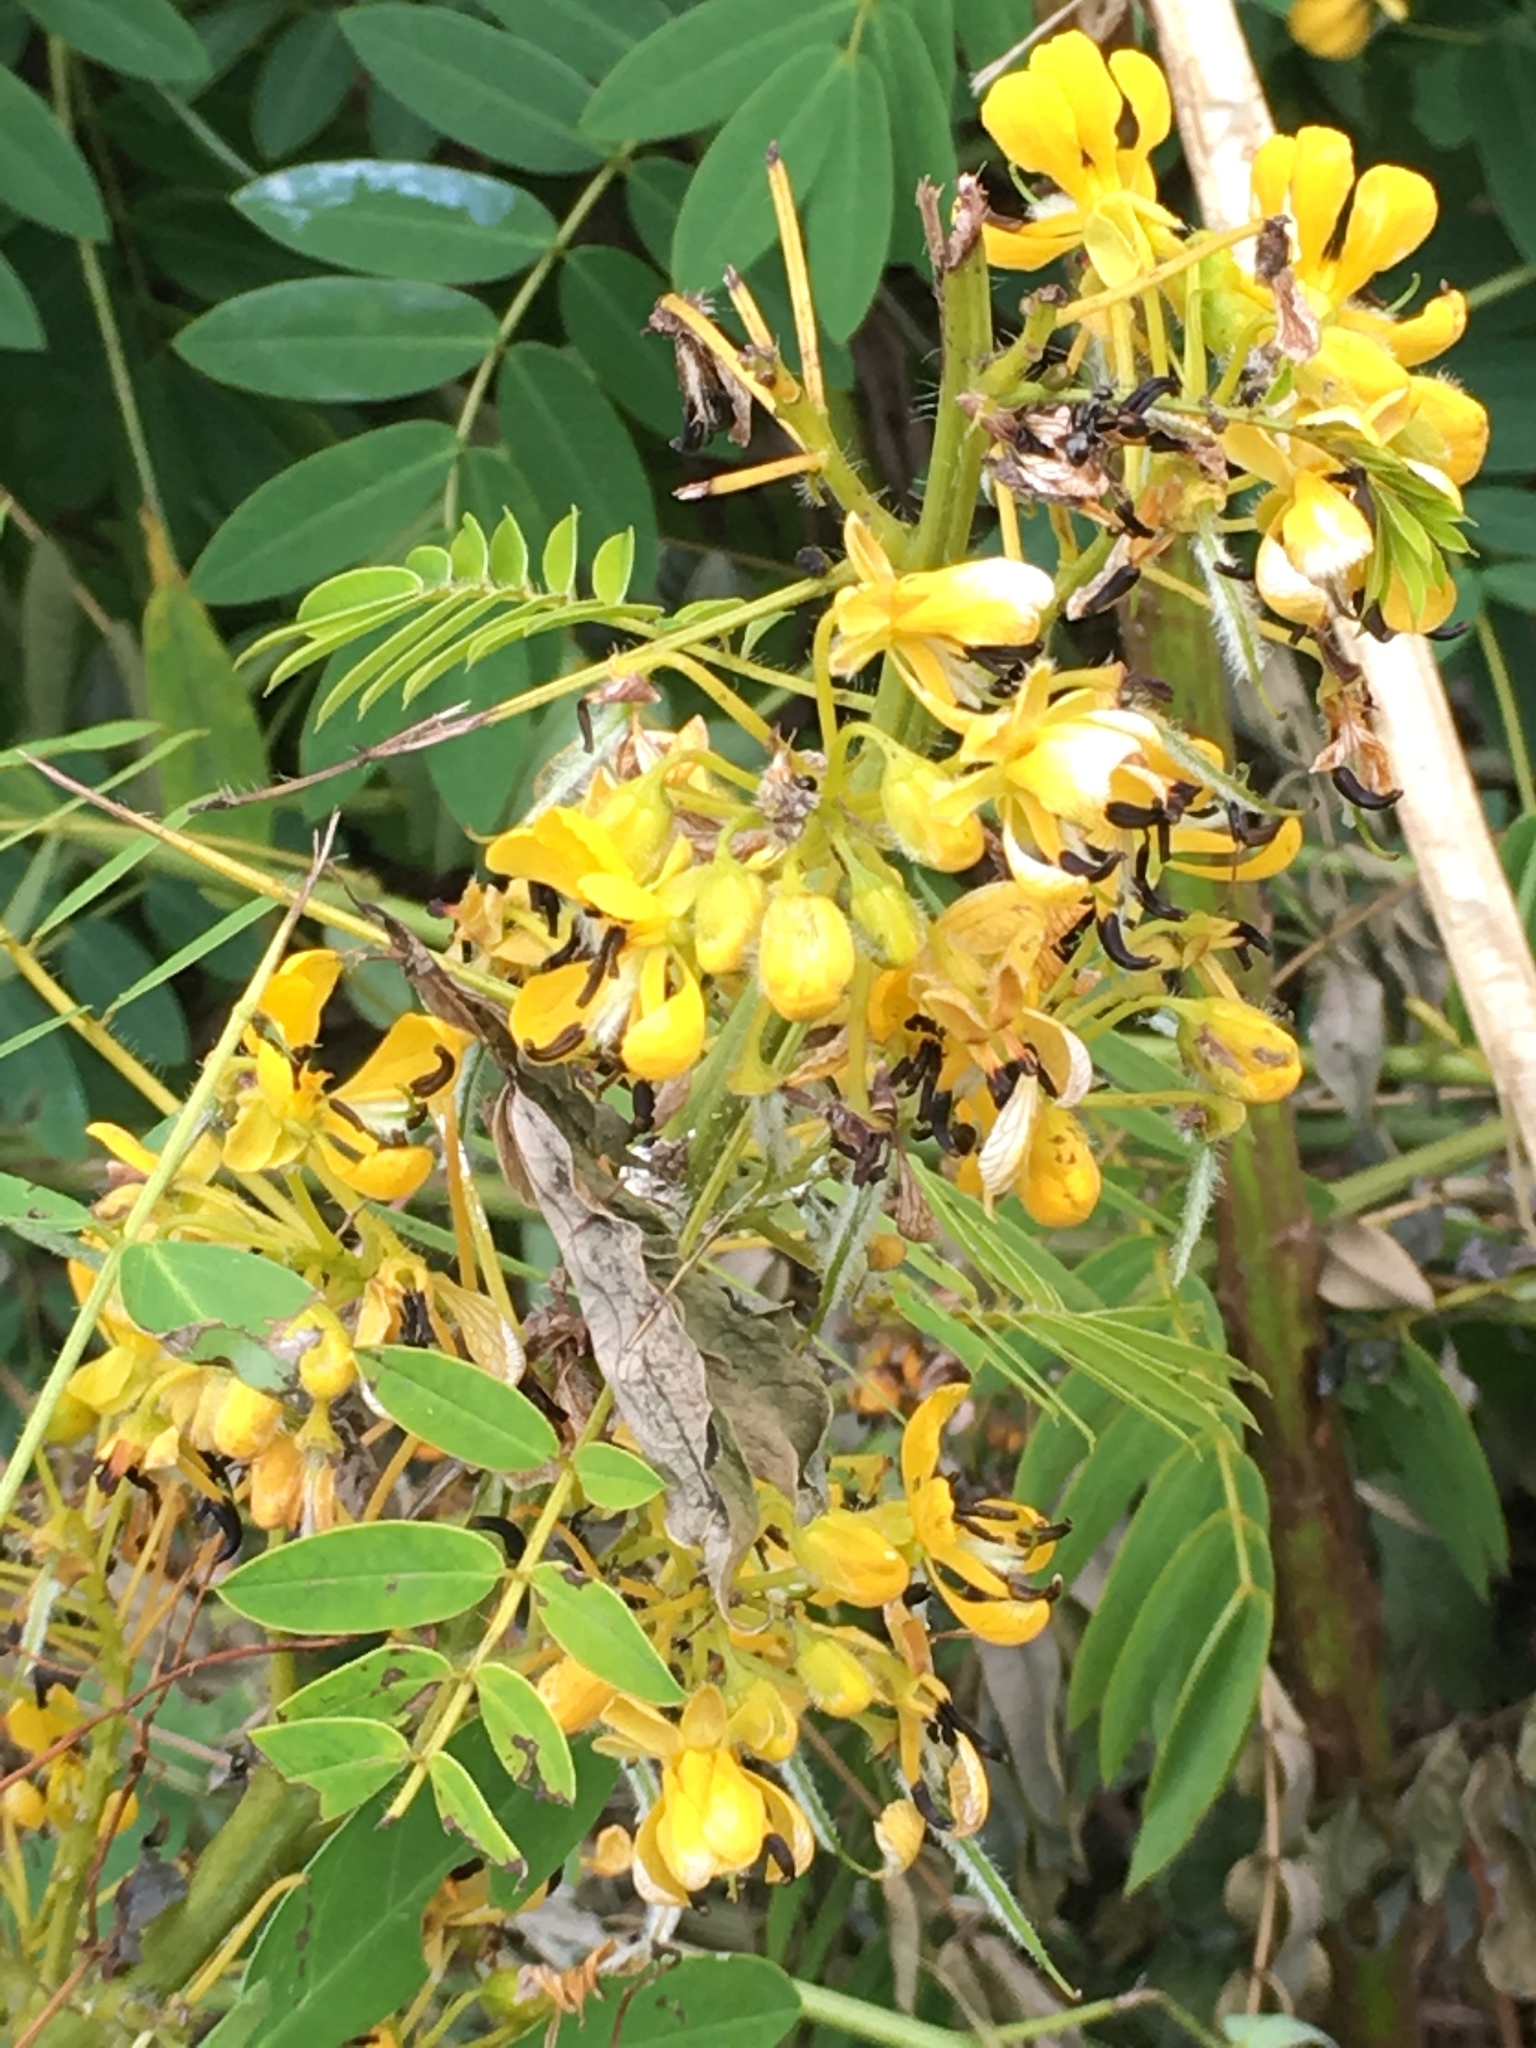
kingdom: Plantae
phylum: Tracheophyta
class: Magnoliopsida
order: Fabales
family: Fabaceae
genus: Senna
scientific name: Senna hebecarpa
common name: Wild senna
